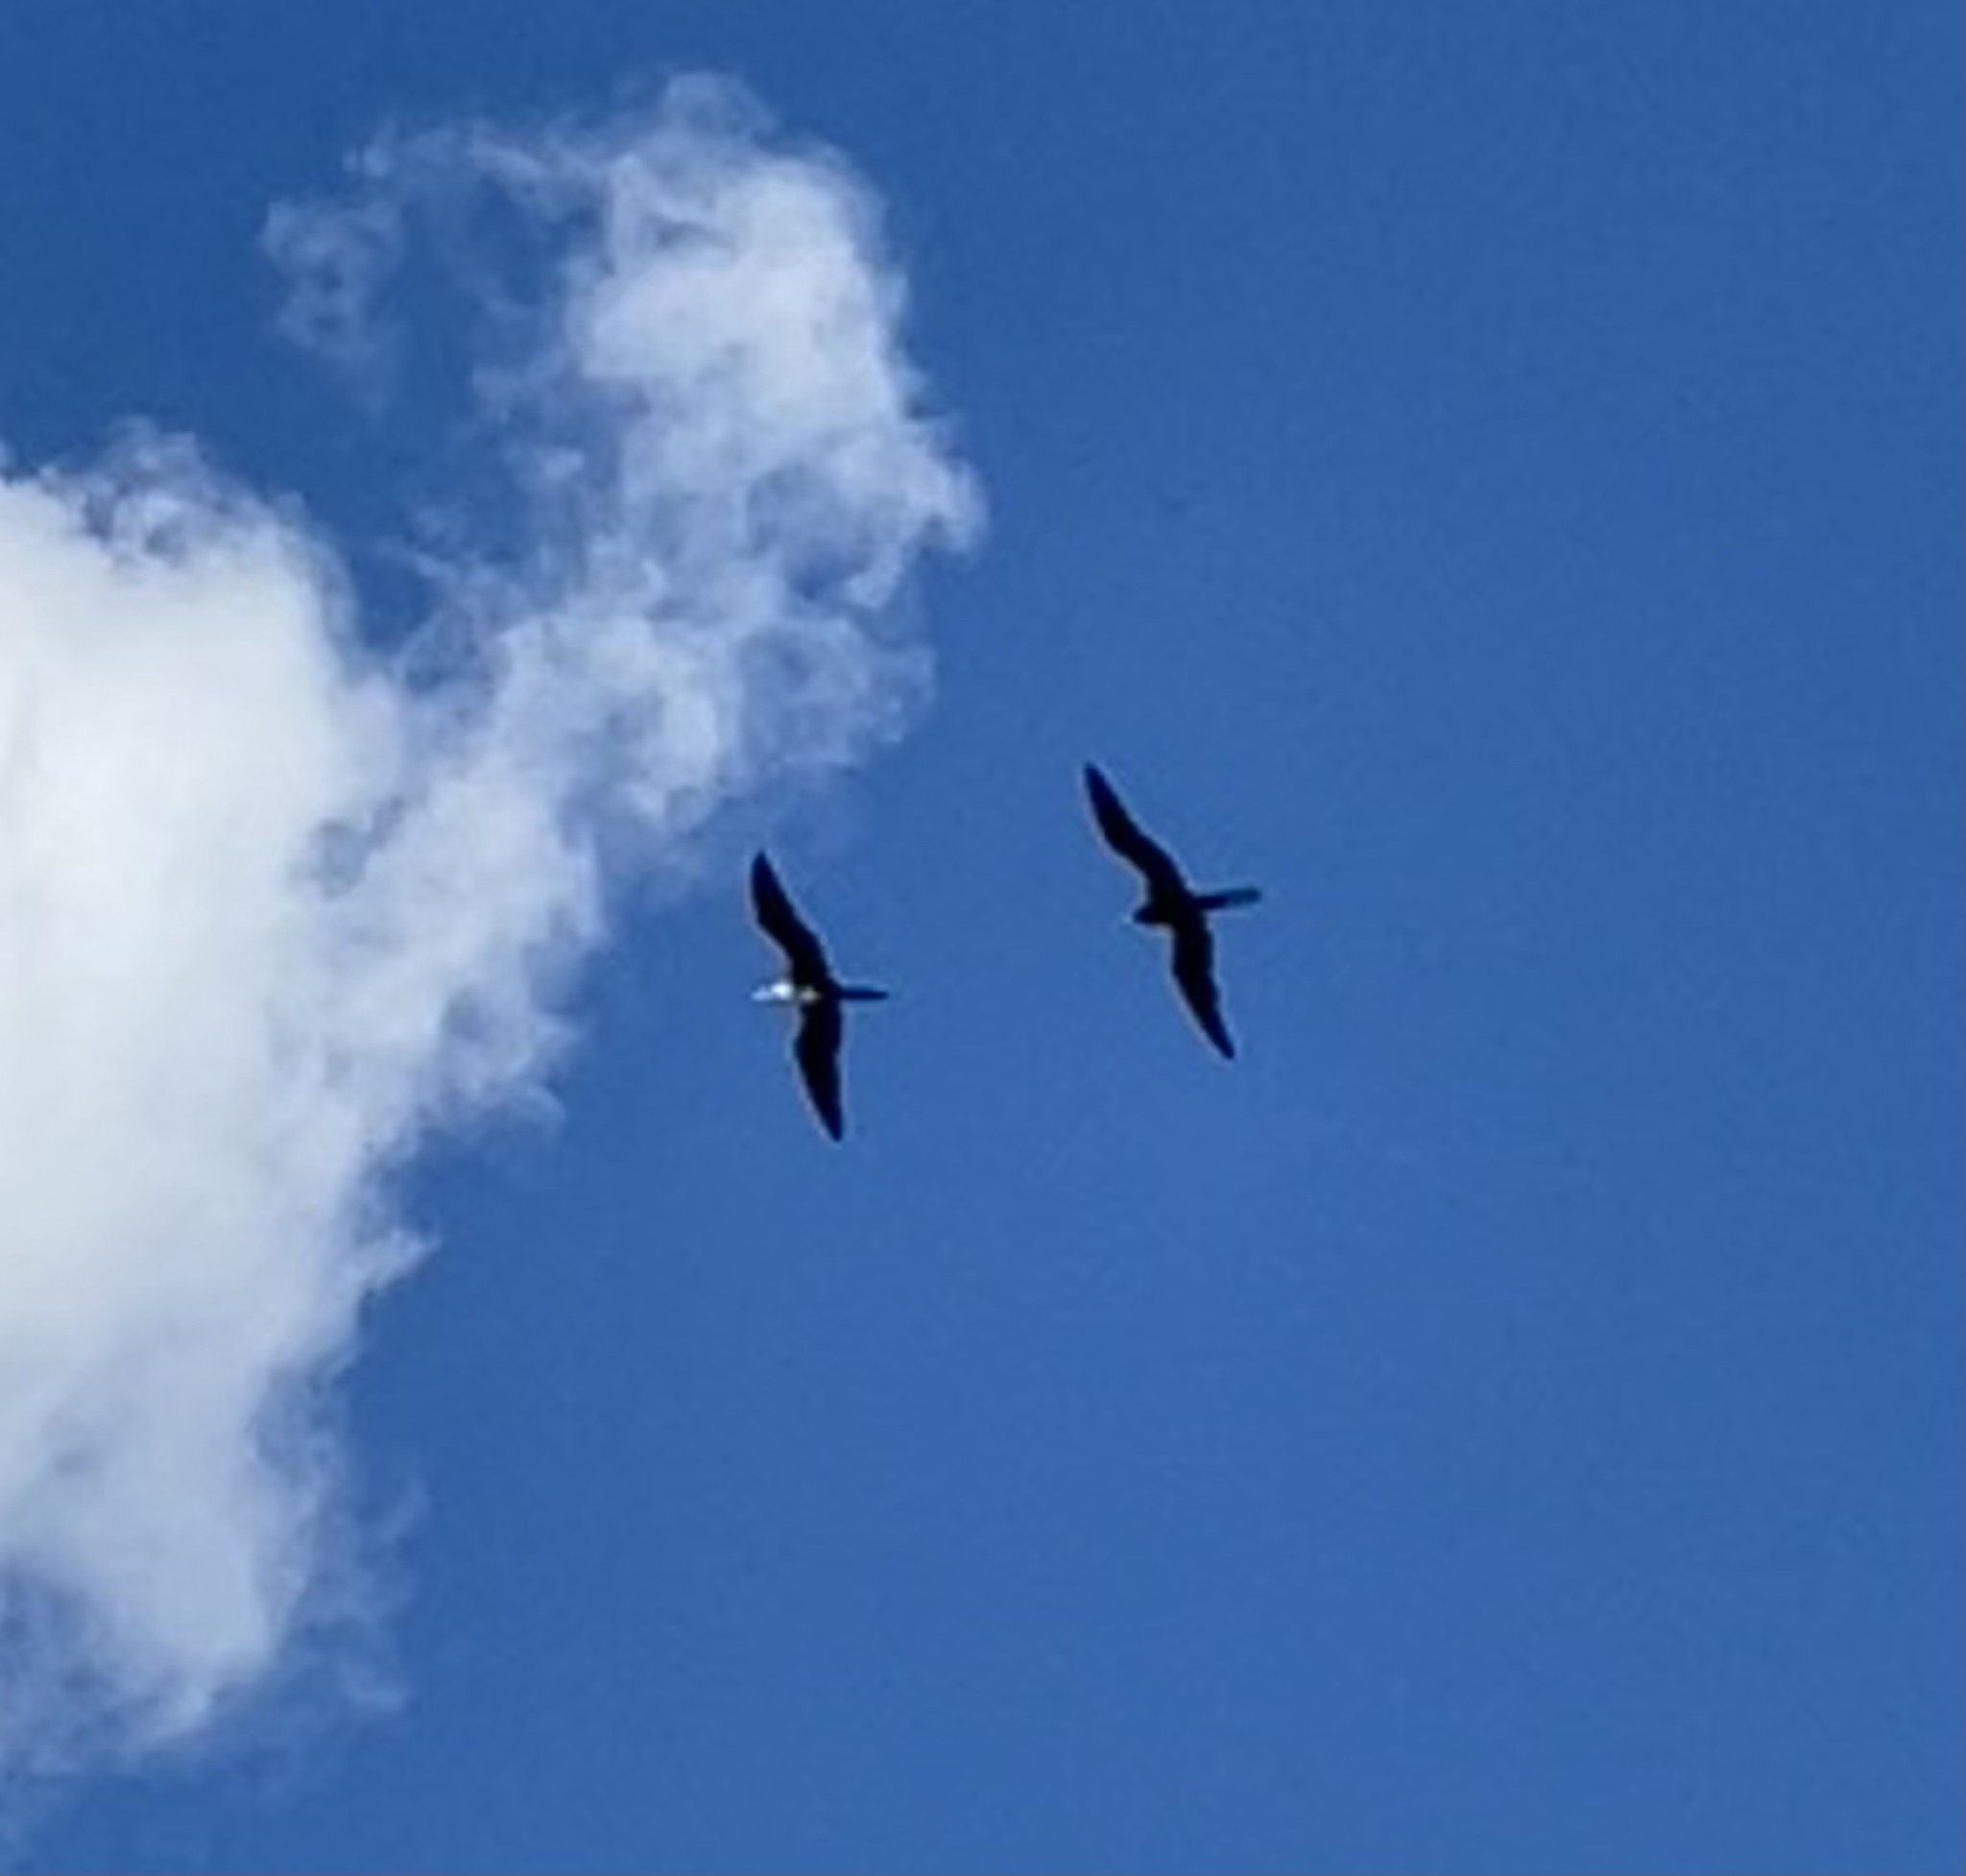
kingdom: Animalia
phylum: Chordata
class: Aves
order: Suliformes
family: Fregatidae
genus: Fregata
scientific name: Fregata magnificens
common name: Magnificent frigatebird
